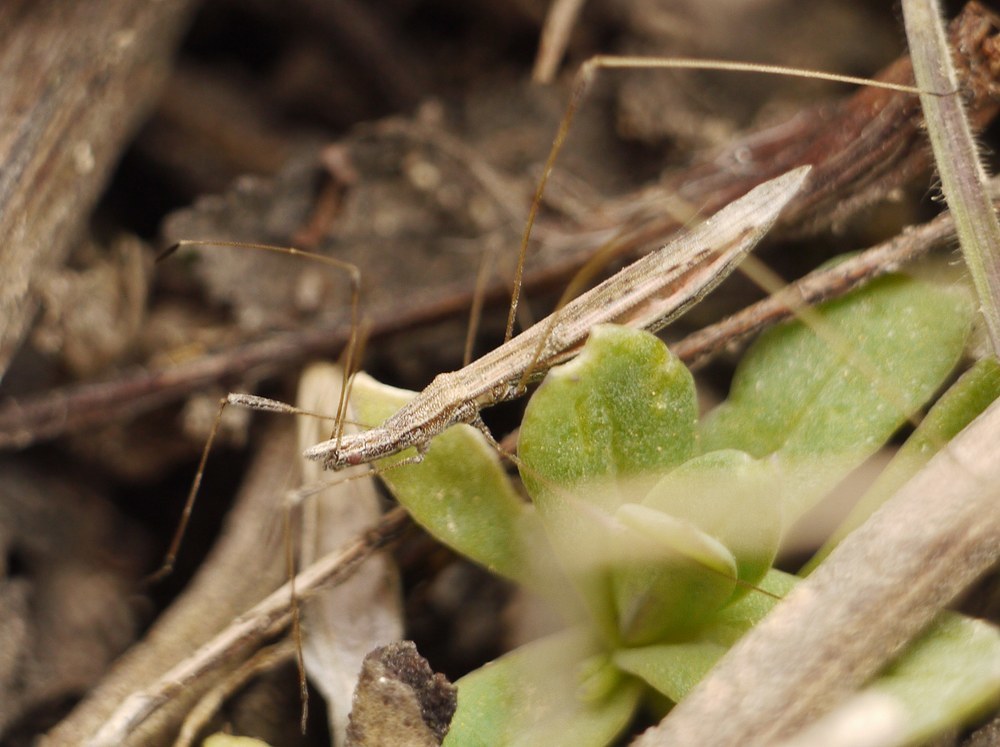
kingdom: Animalia
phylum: Arthropoda
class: Insecta
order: Hemiptera
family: Berytidae
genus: Neides
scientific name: Neides tipularius
